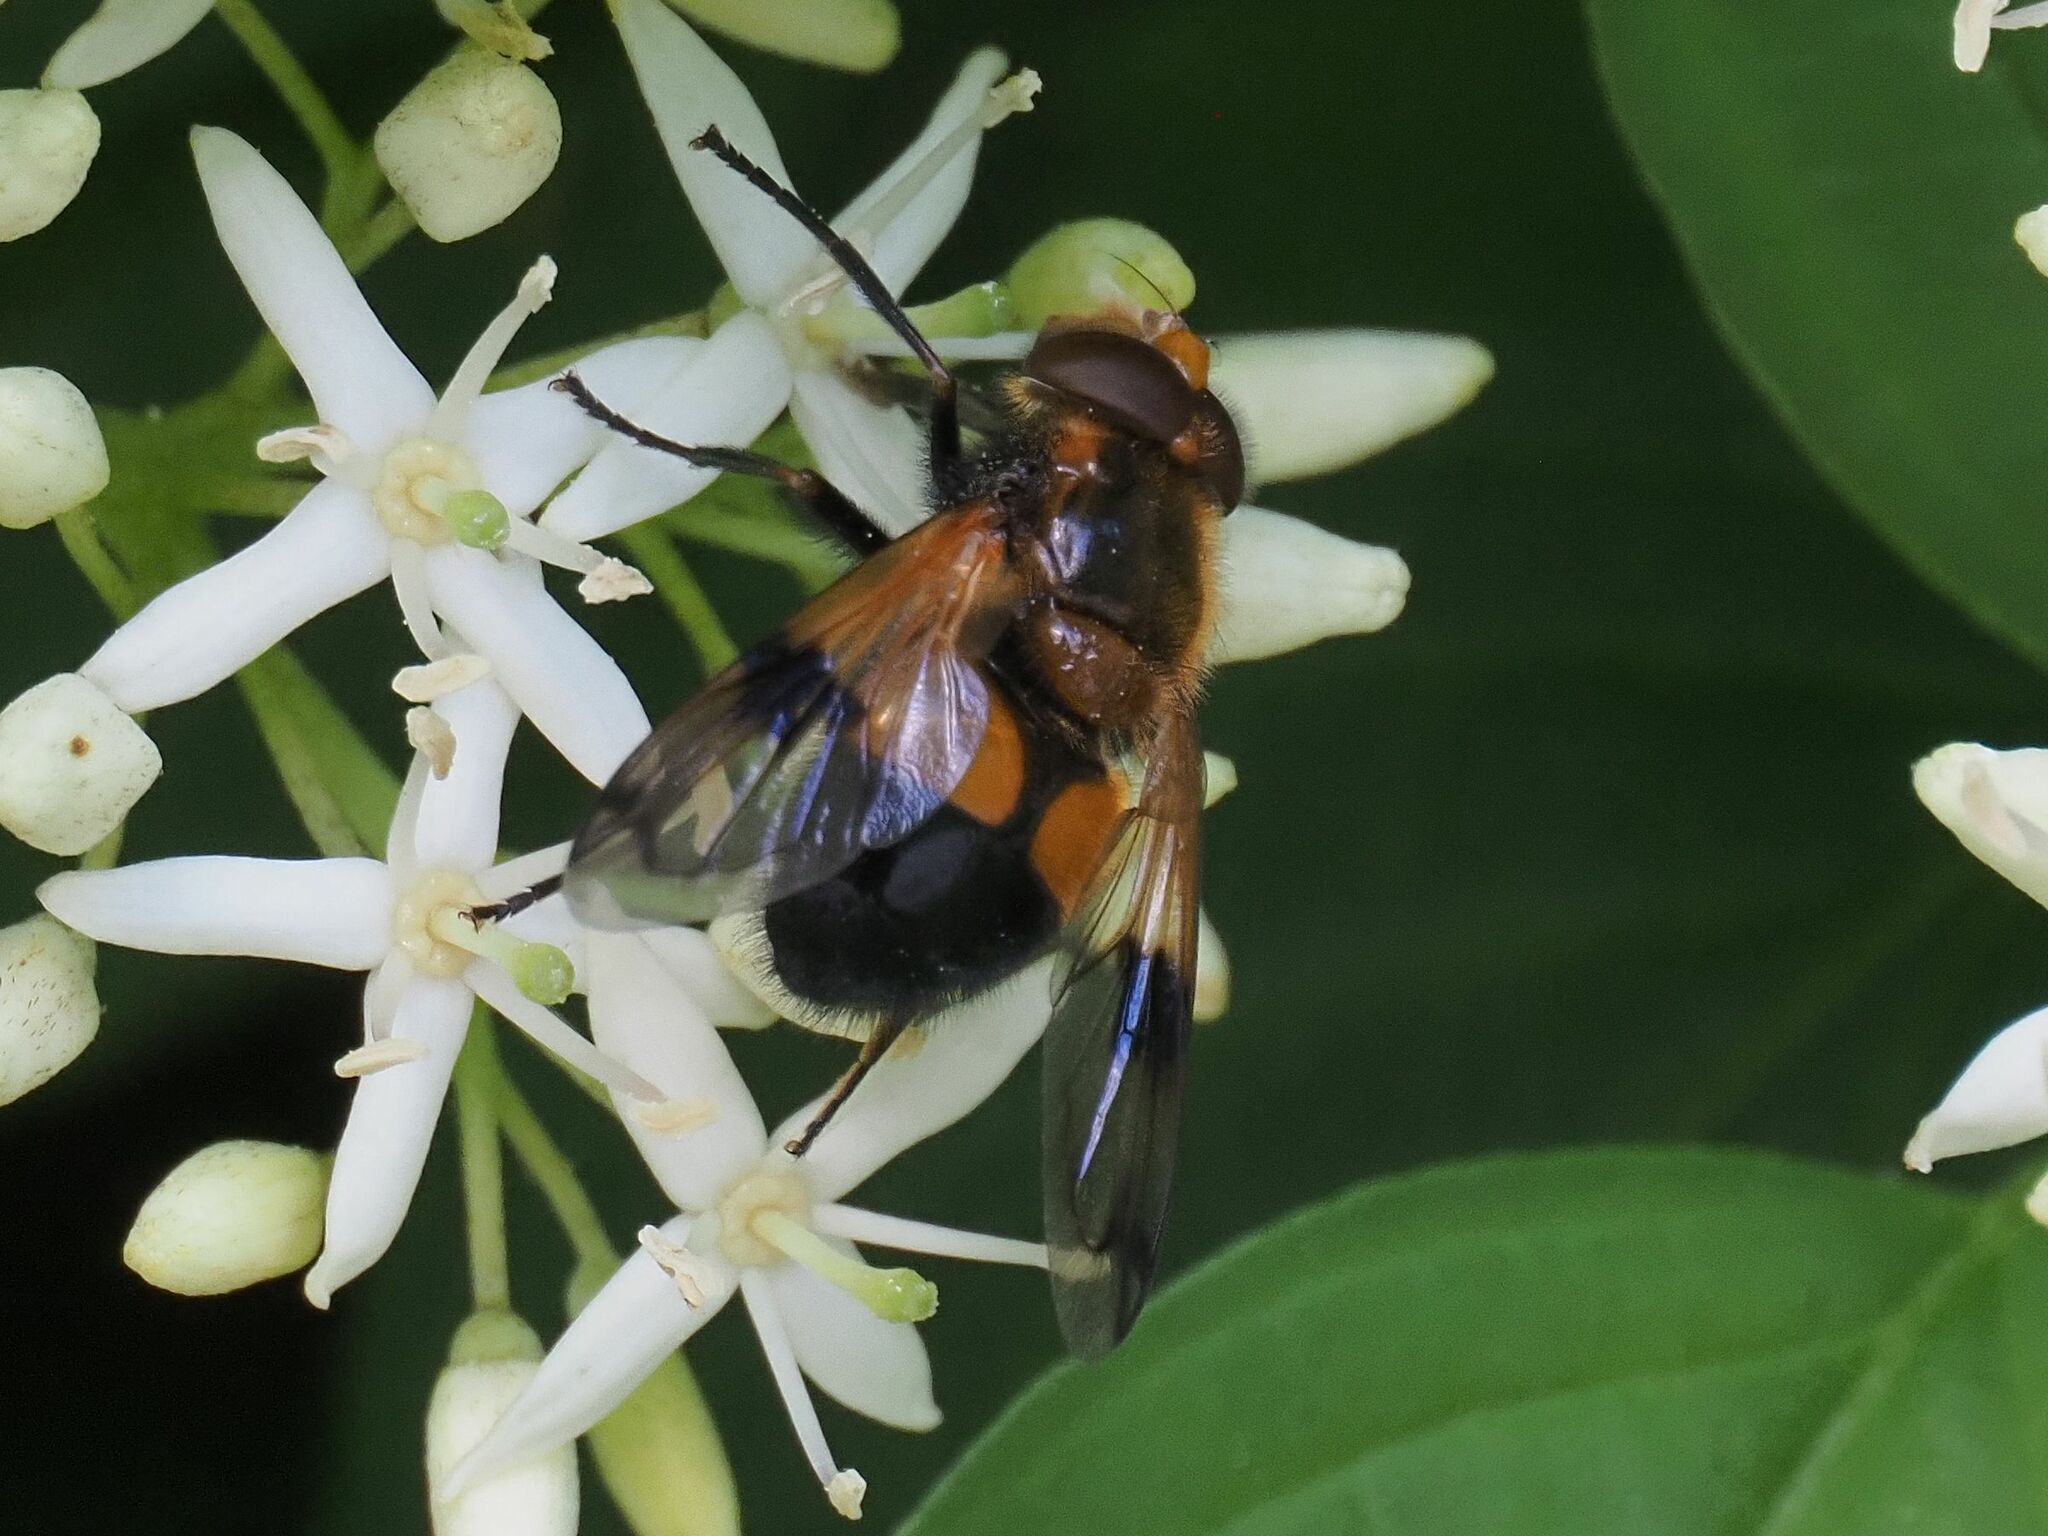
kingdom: Animalia
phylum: Arthropoda
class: Insecta
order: Diptera
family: Syrphidae
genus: Volucella
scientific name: Volucella inflata
